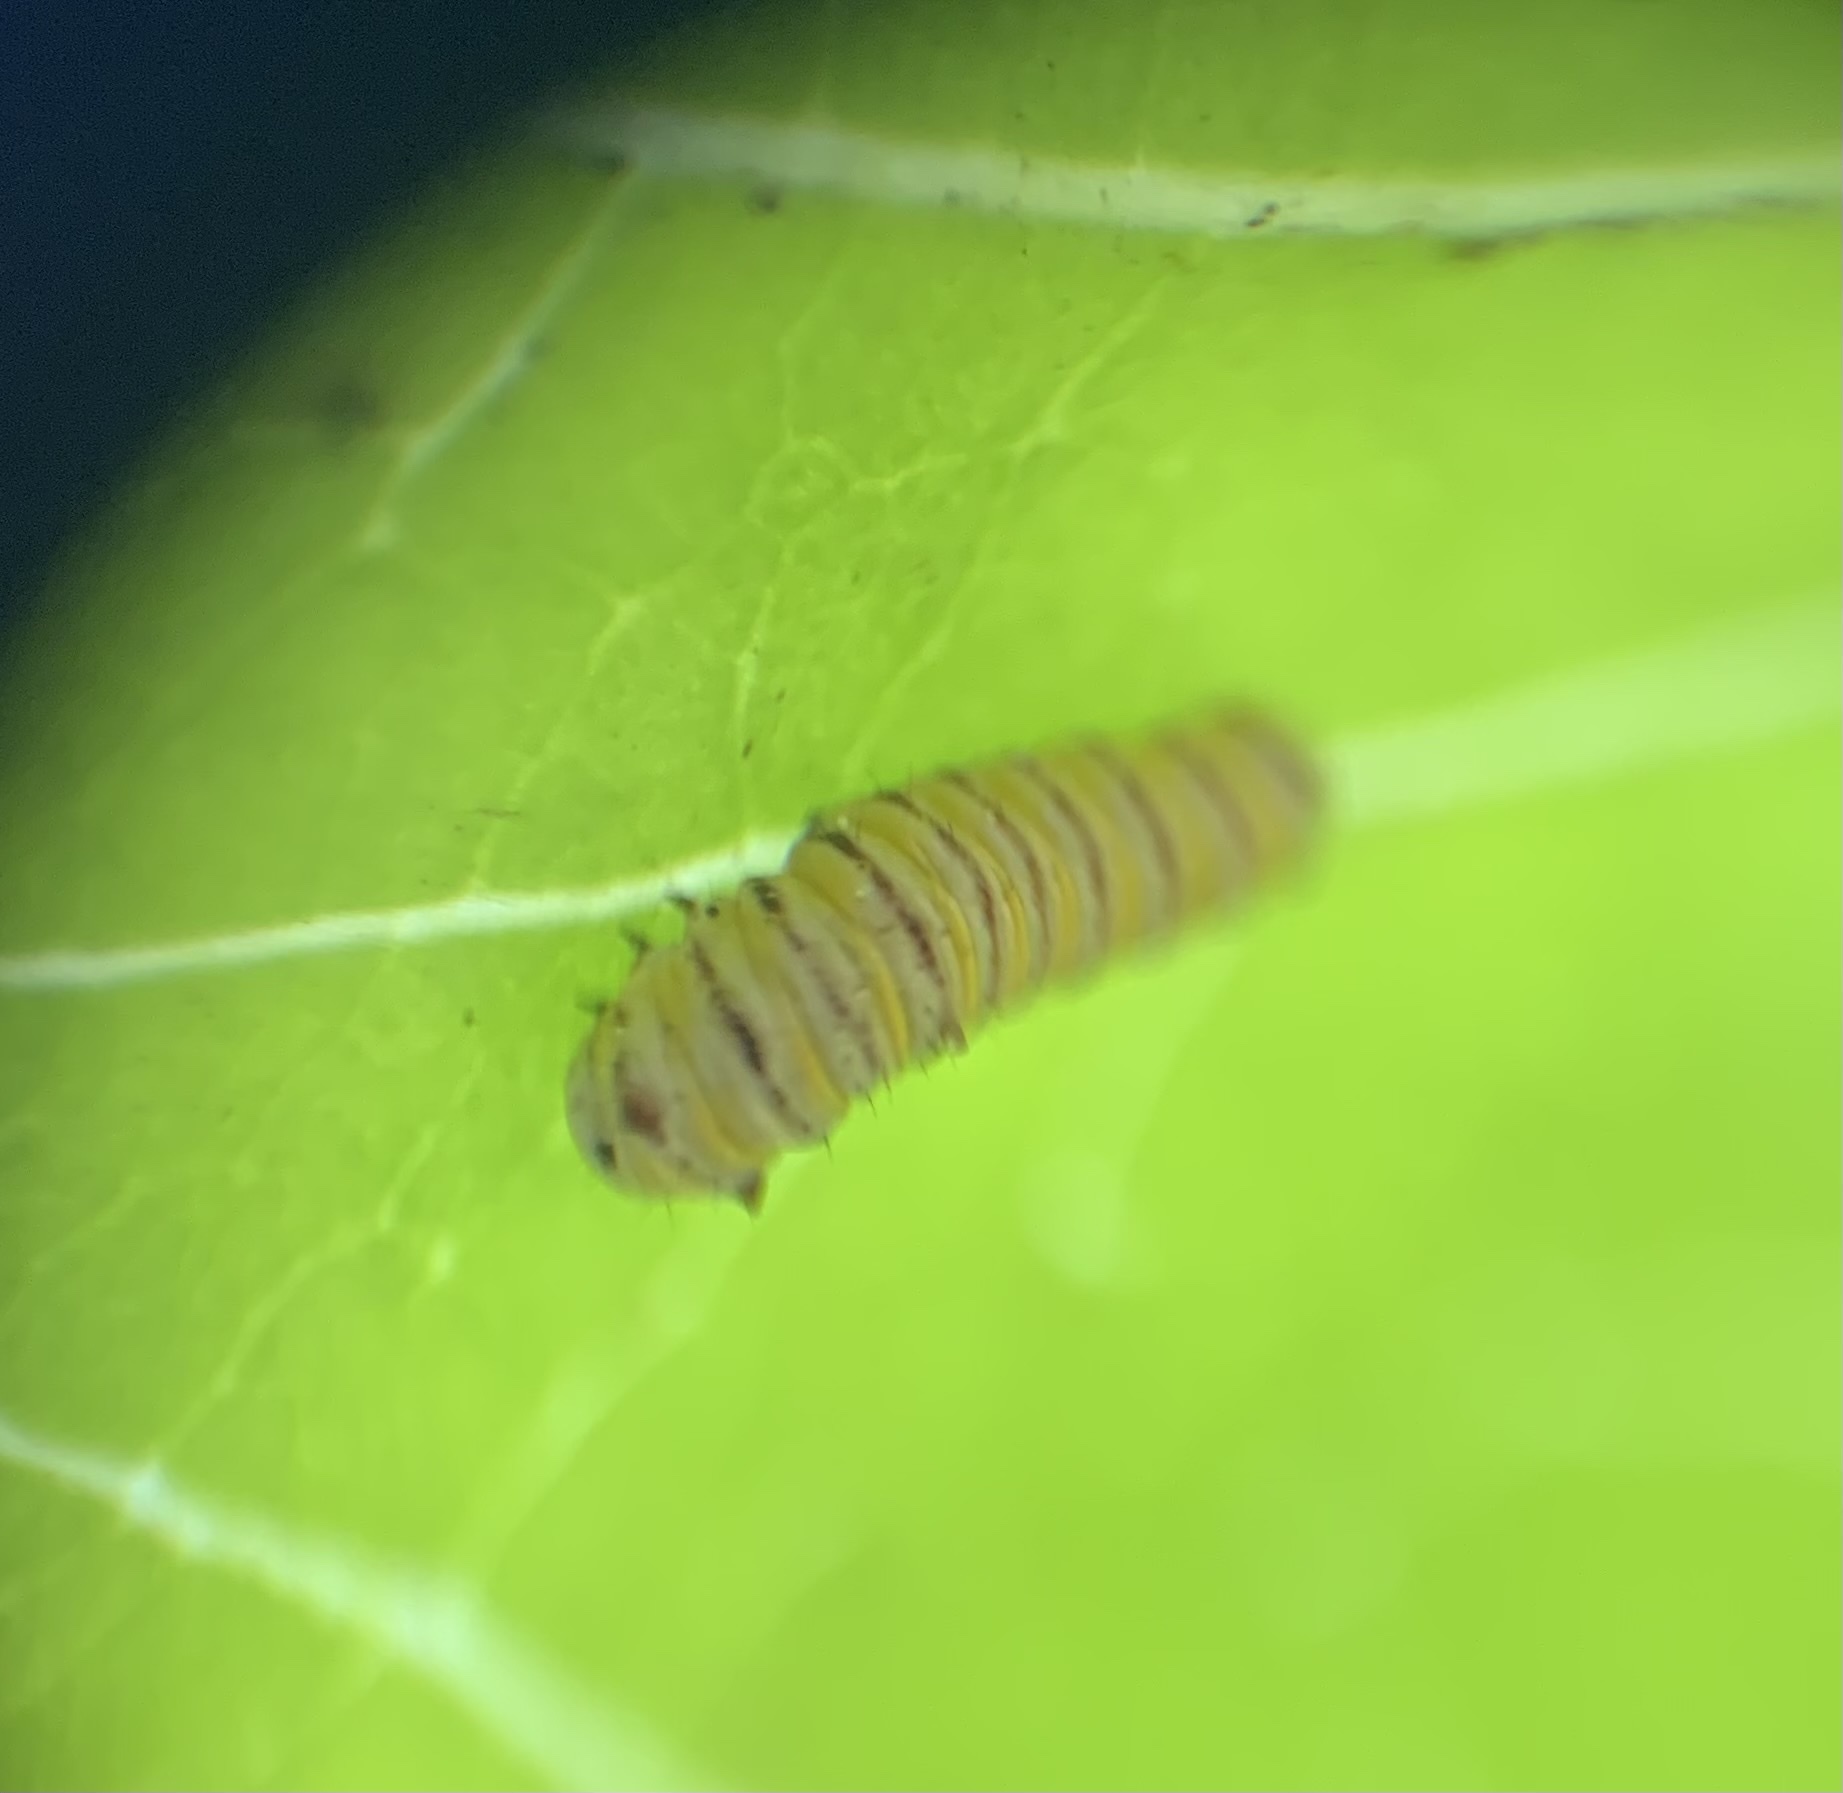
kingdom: Animalia
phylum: Arthropoda
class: Insecta
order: Lepidoptera
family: Nymphalidae
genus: Danaus
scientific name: Danaus plexippus
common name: Monarch
